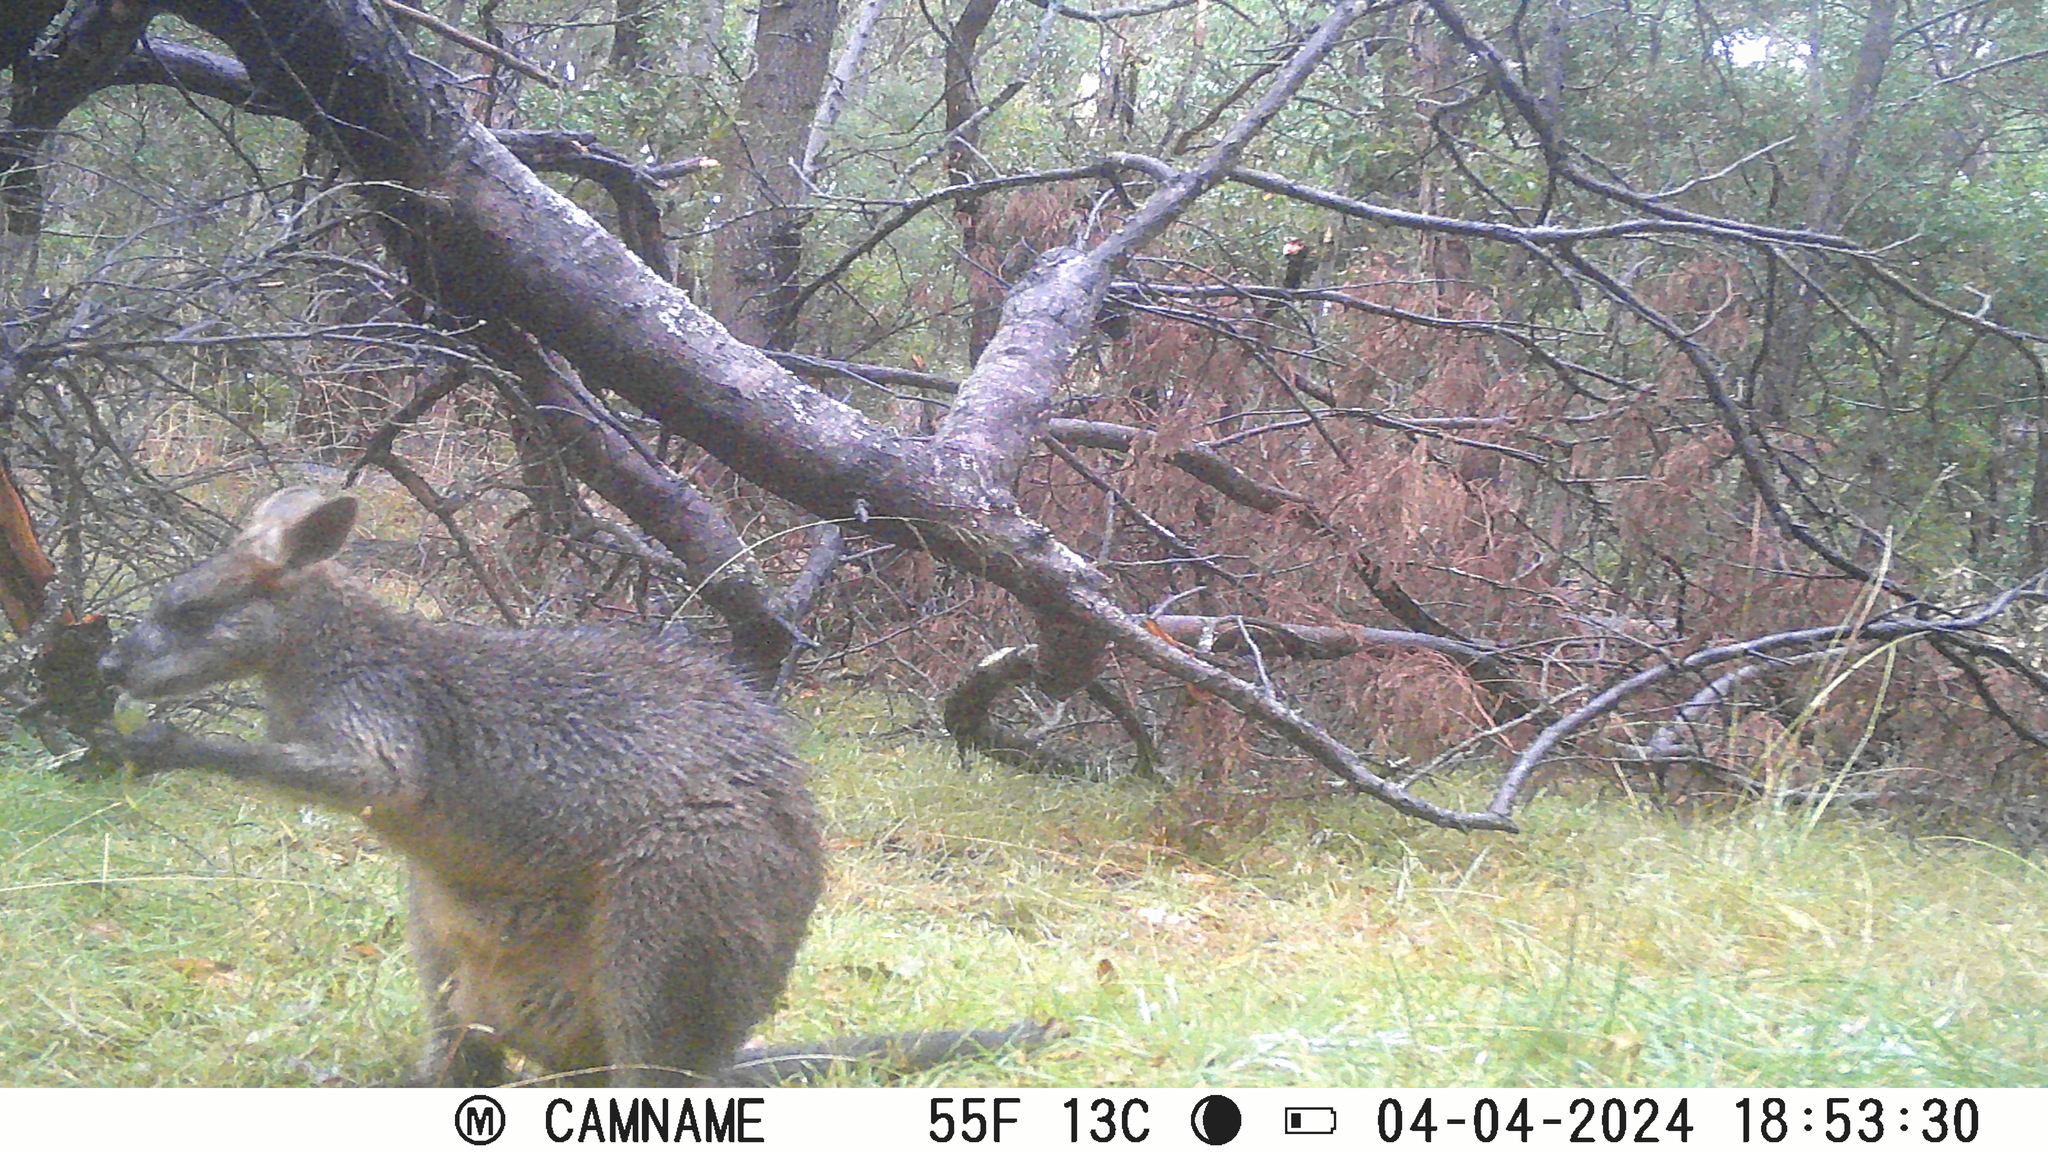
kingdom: Animalia
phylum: Chordata
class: Mammalia
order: Diprotodontia
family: Macropodidae
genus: Wallabia
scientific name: Wallabia bicolor
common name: Swamp wallaby
